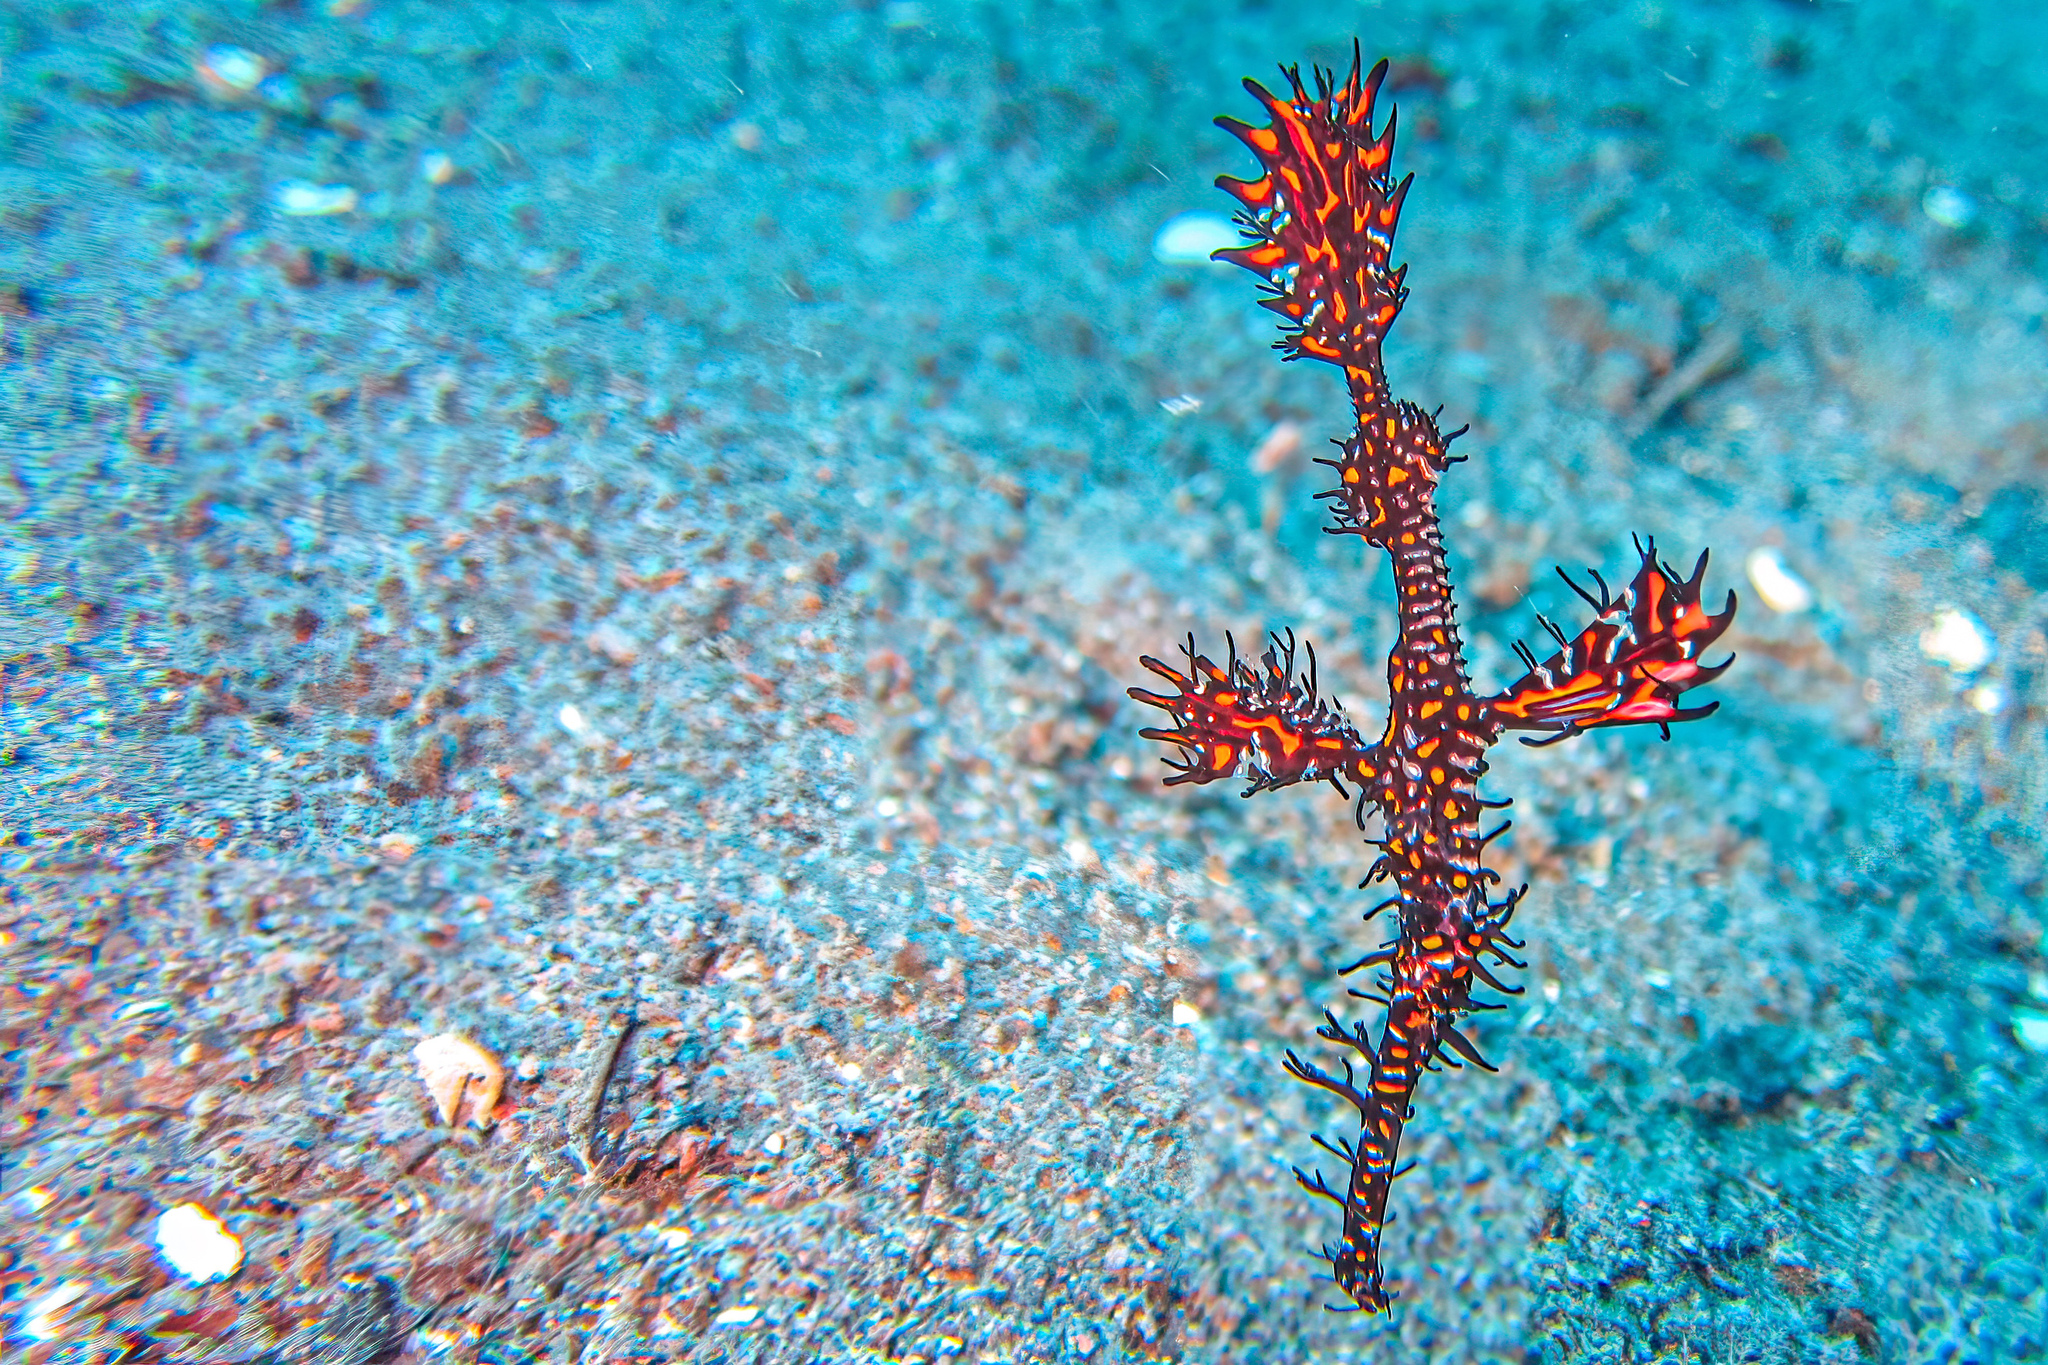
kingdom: Animalia
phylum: Chordata
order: Syngnathiformes
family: Solenostomidae
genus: Solenostomus
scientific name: Solenostomus paradoxus
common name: Ghost pipefish
